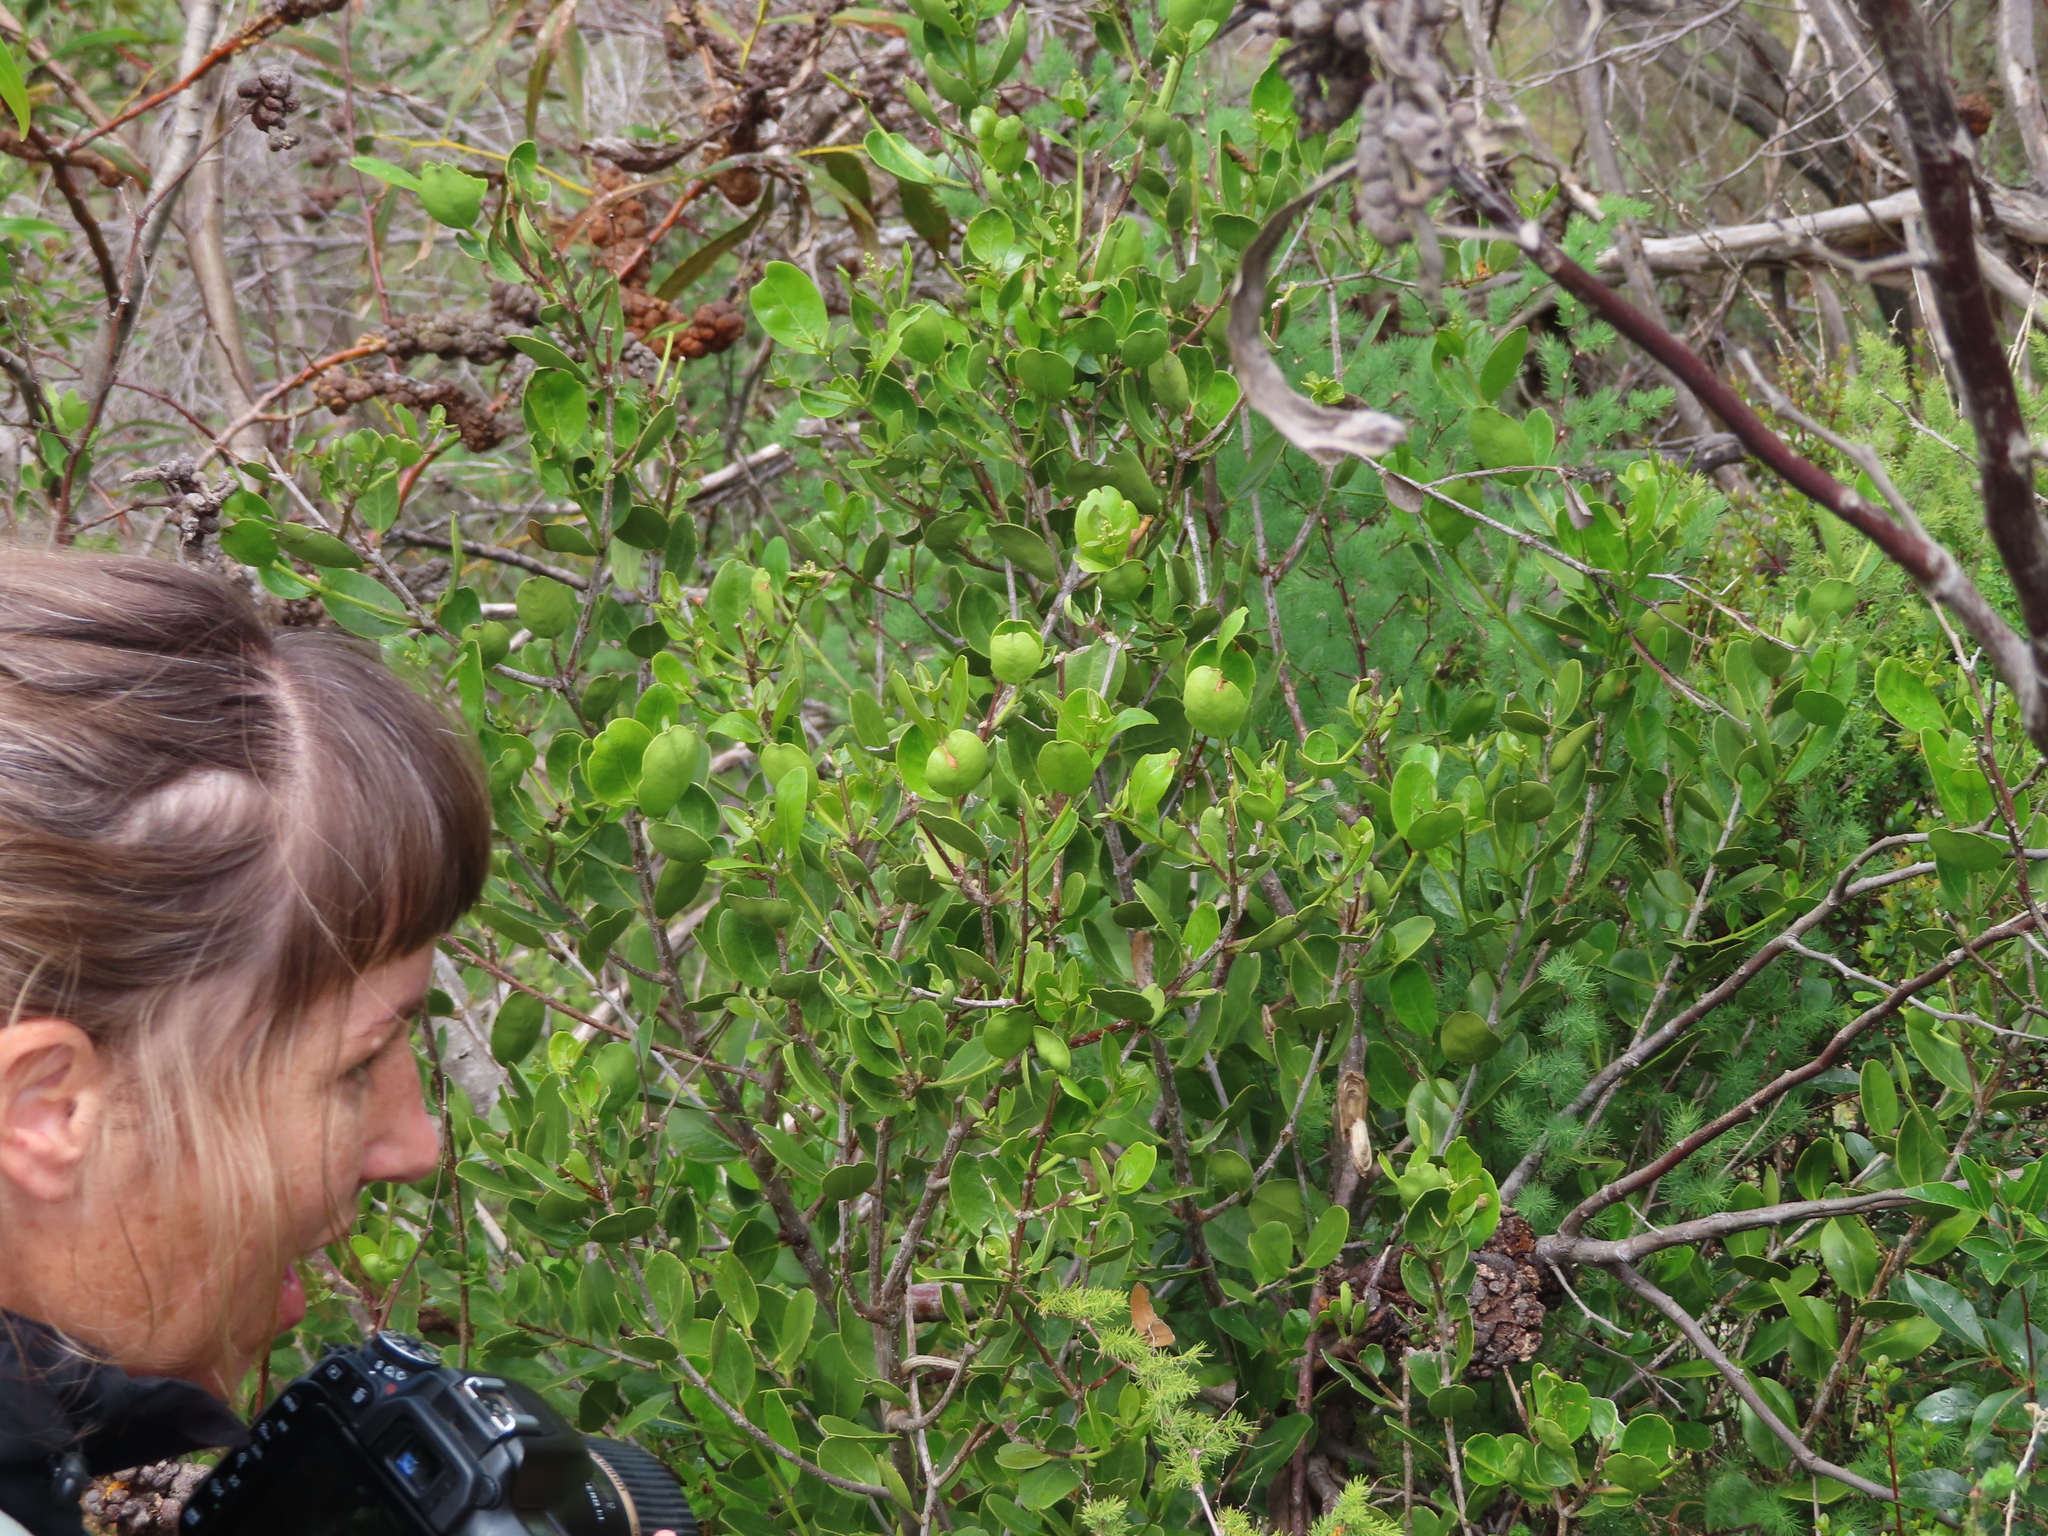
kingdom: Plantae
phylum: Tracheophyta
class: Magnoliopsida
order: Lamiales
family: Oleaceae
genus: Olea
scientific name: Olea capensis
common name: Black ironwood
